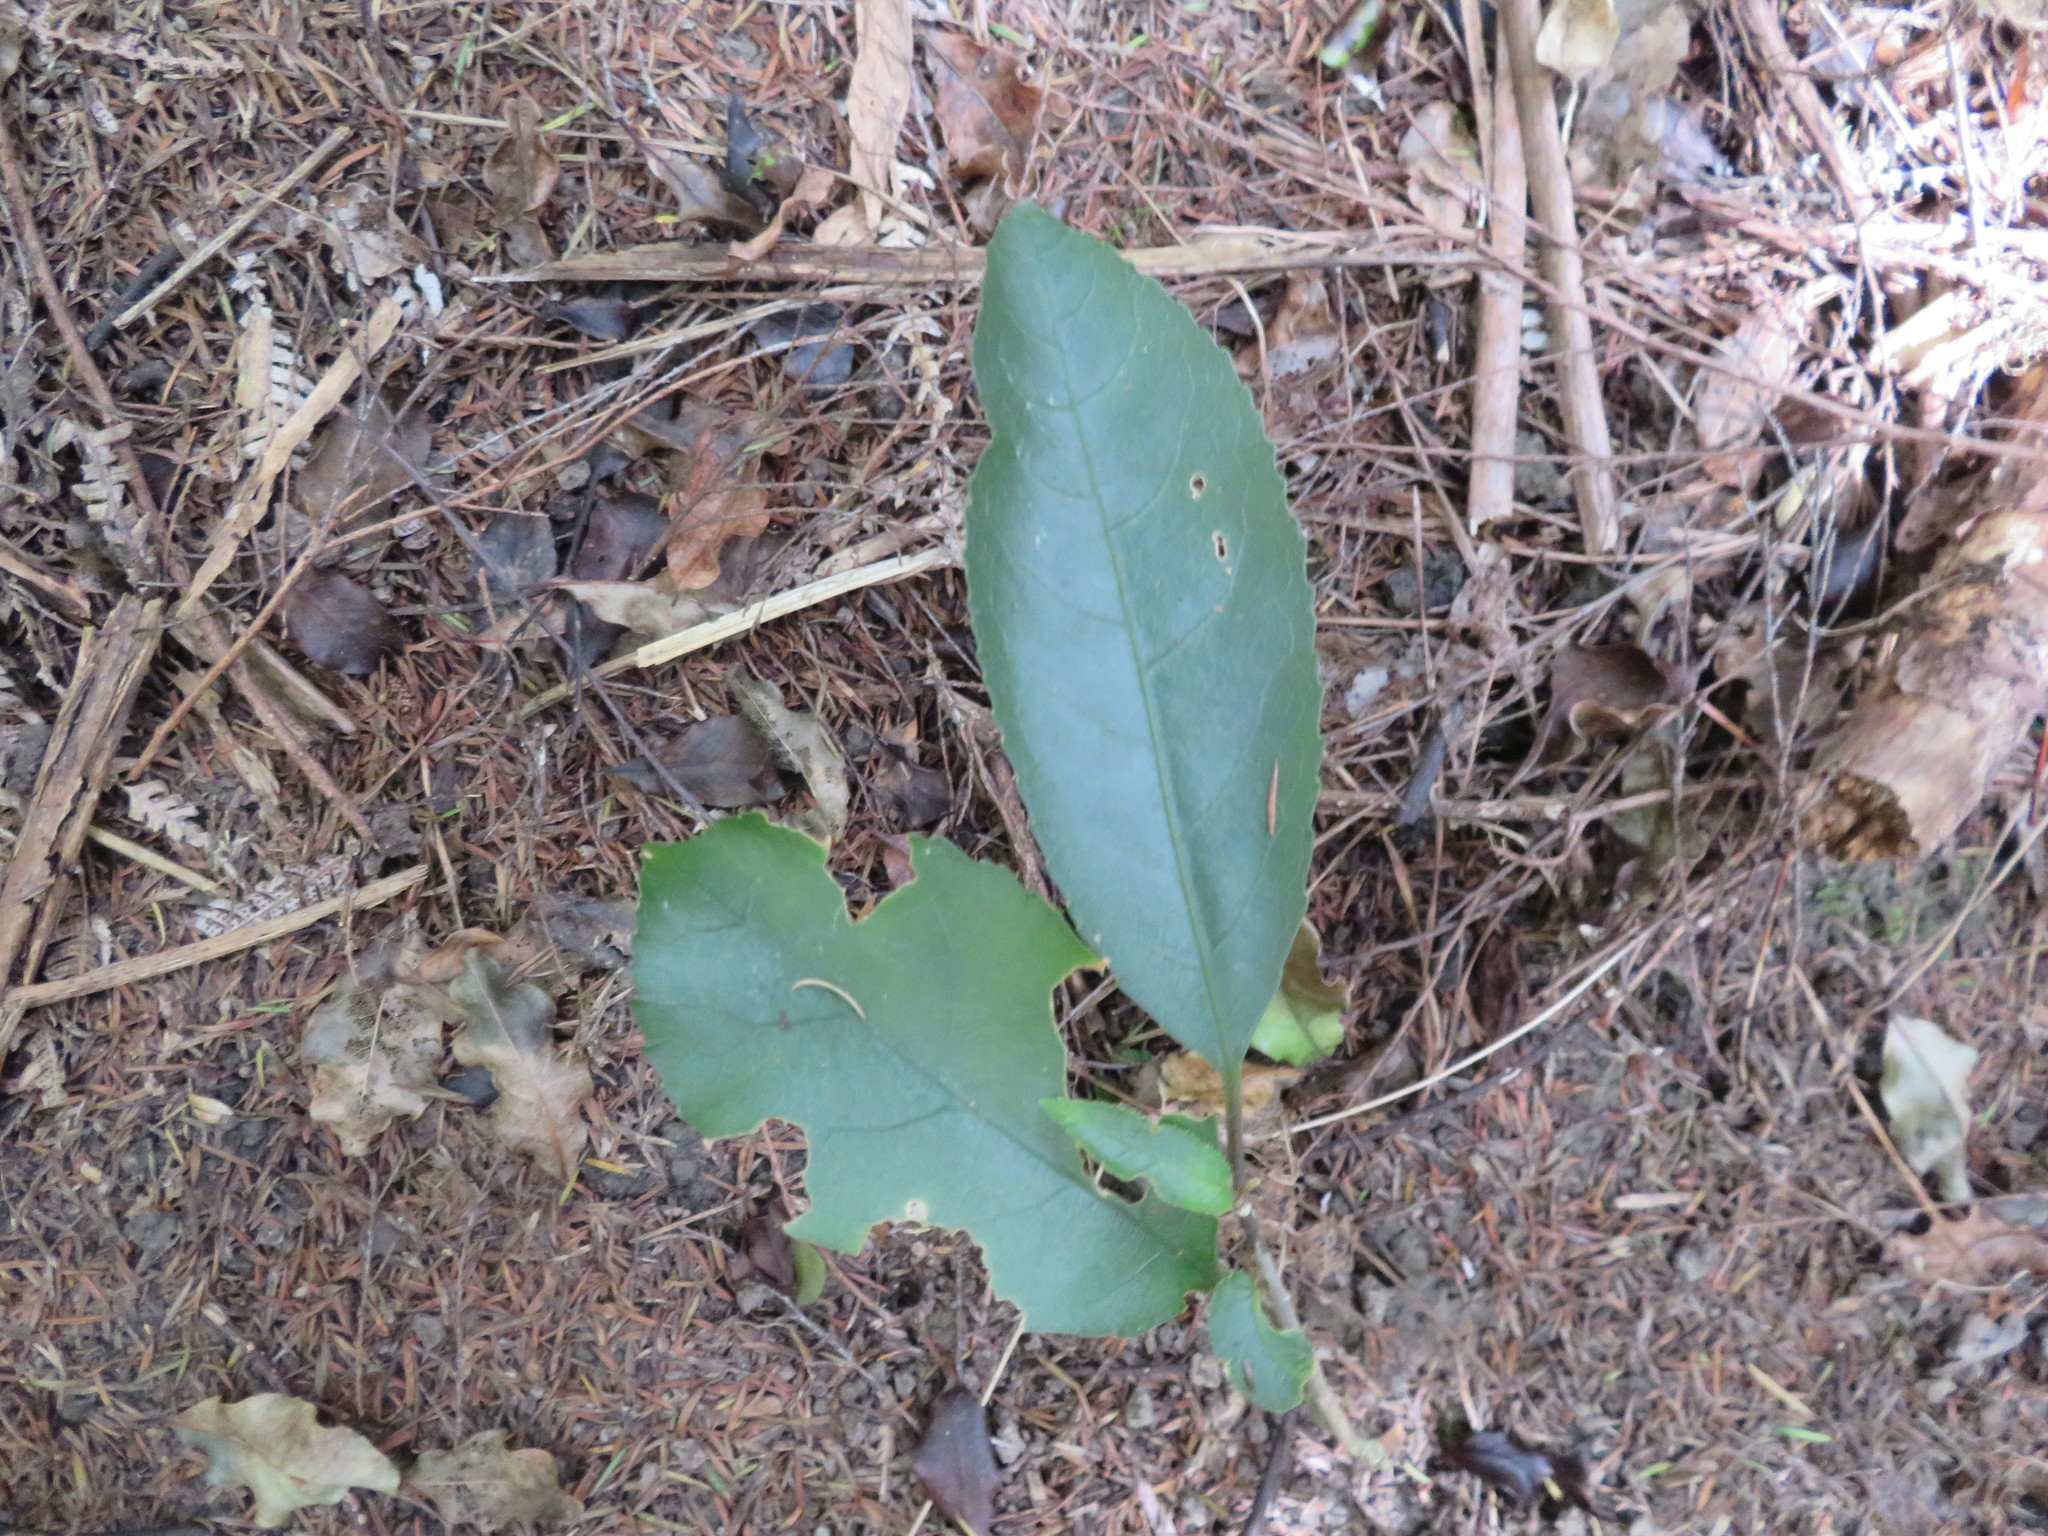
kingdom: Plantae
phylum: Tracheophyta
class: Magnoliopsida
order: Malpighiales
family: Violaceae
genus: Melicytus
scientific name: Melicytus ramiflorus
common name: Mahoe
